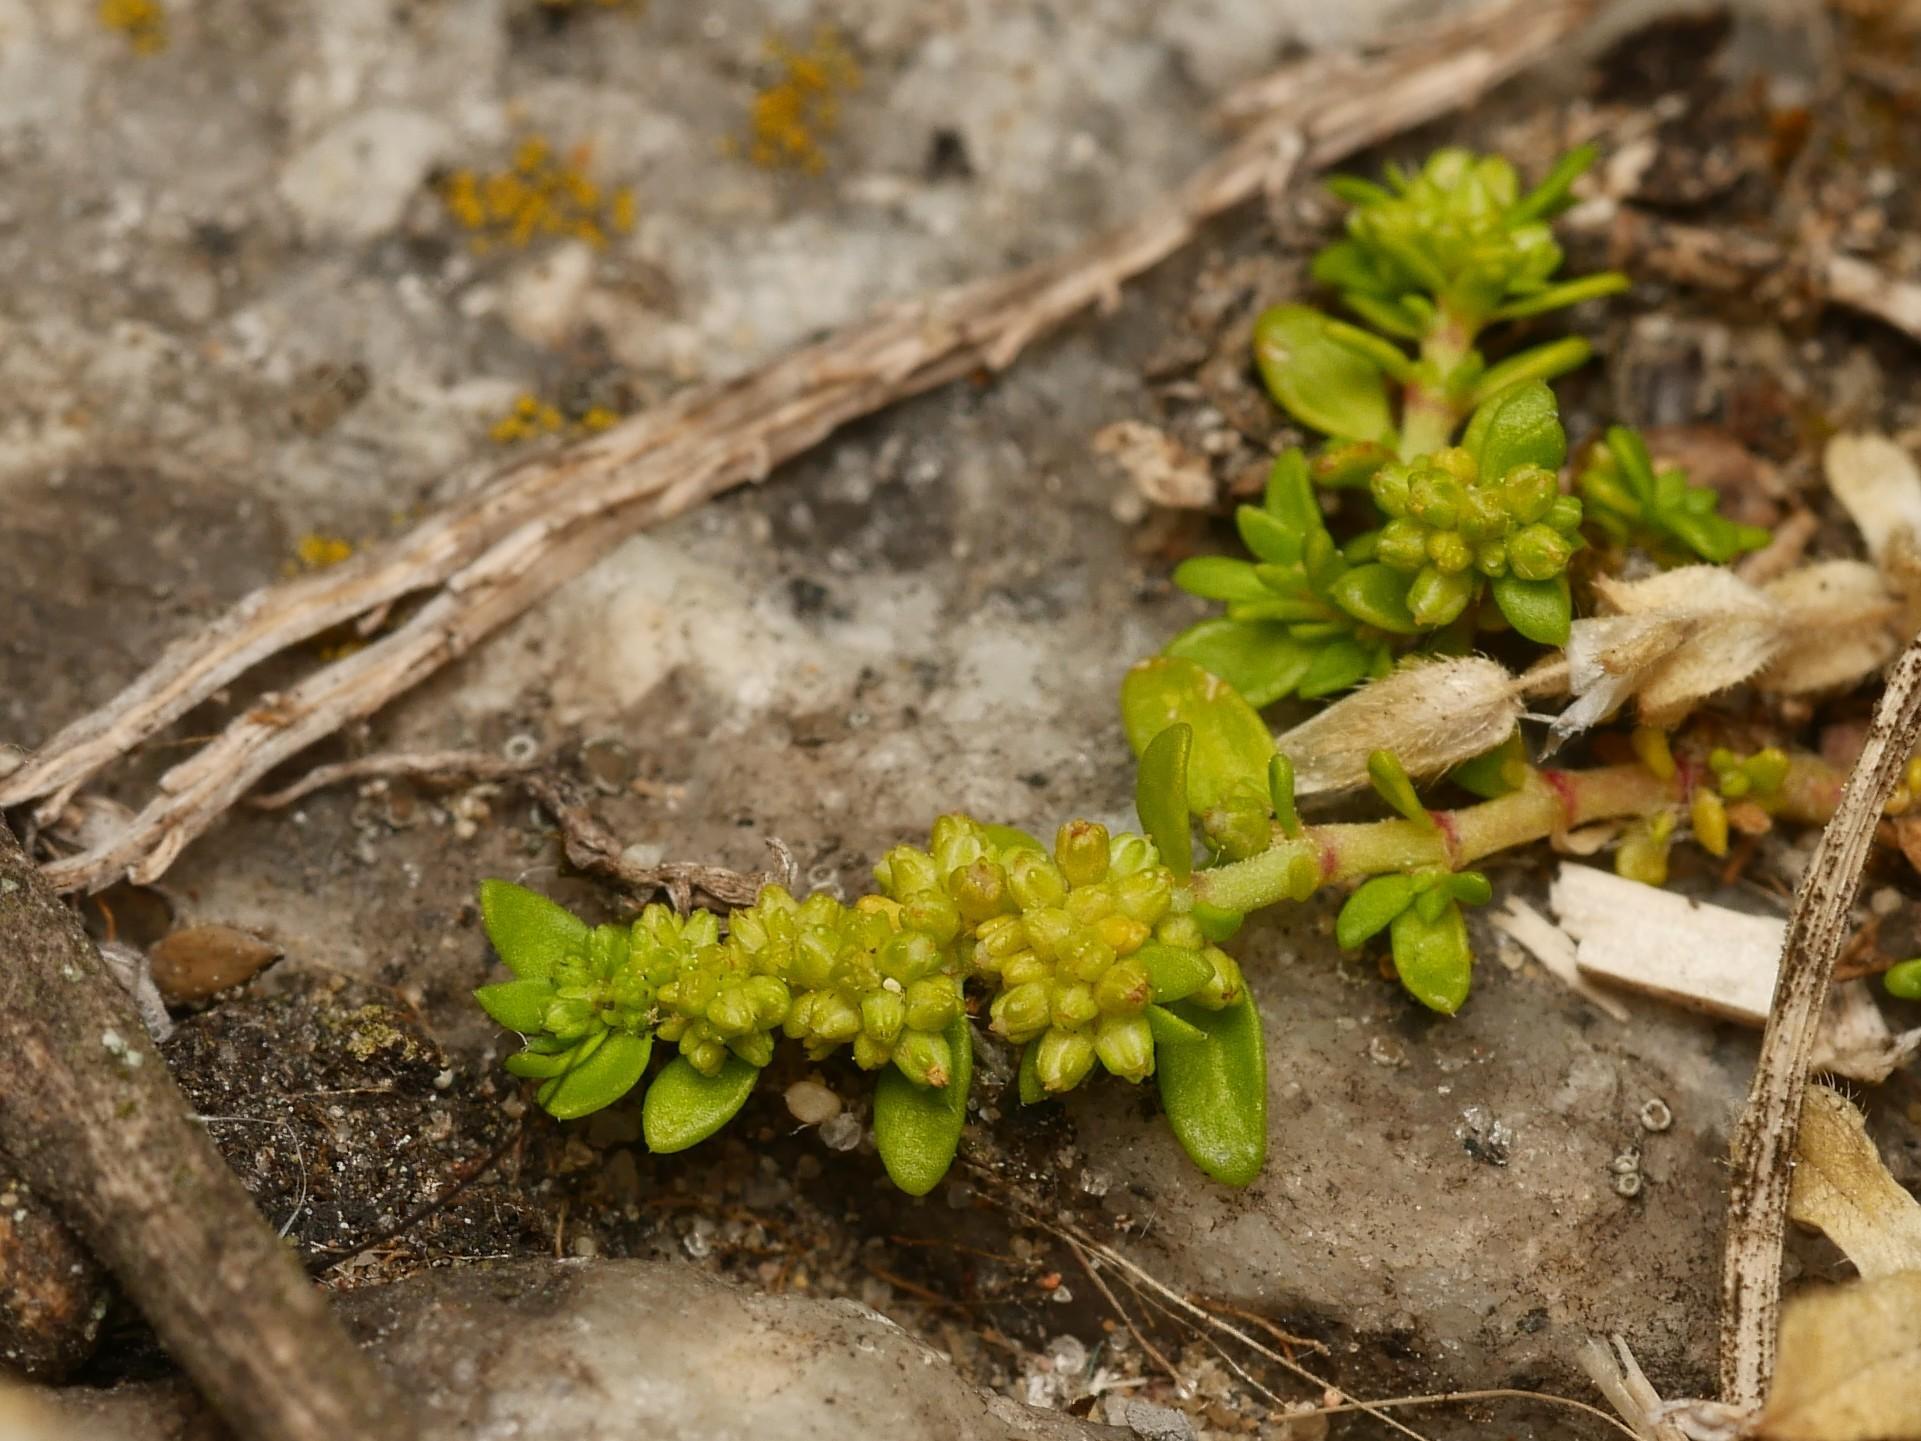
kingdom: Plantae
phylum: Tracheophyta
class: Magnoliopsida
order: Caryophyllales
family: Caryophyllaceae
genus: Herniaria
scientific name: Herniaria glabra
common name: Smooth rupturewort
